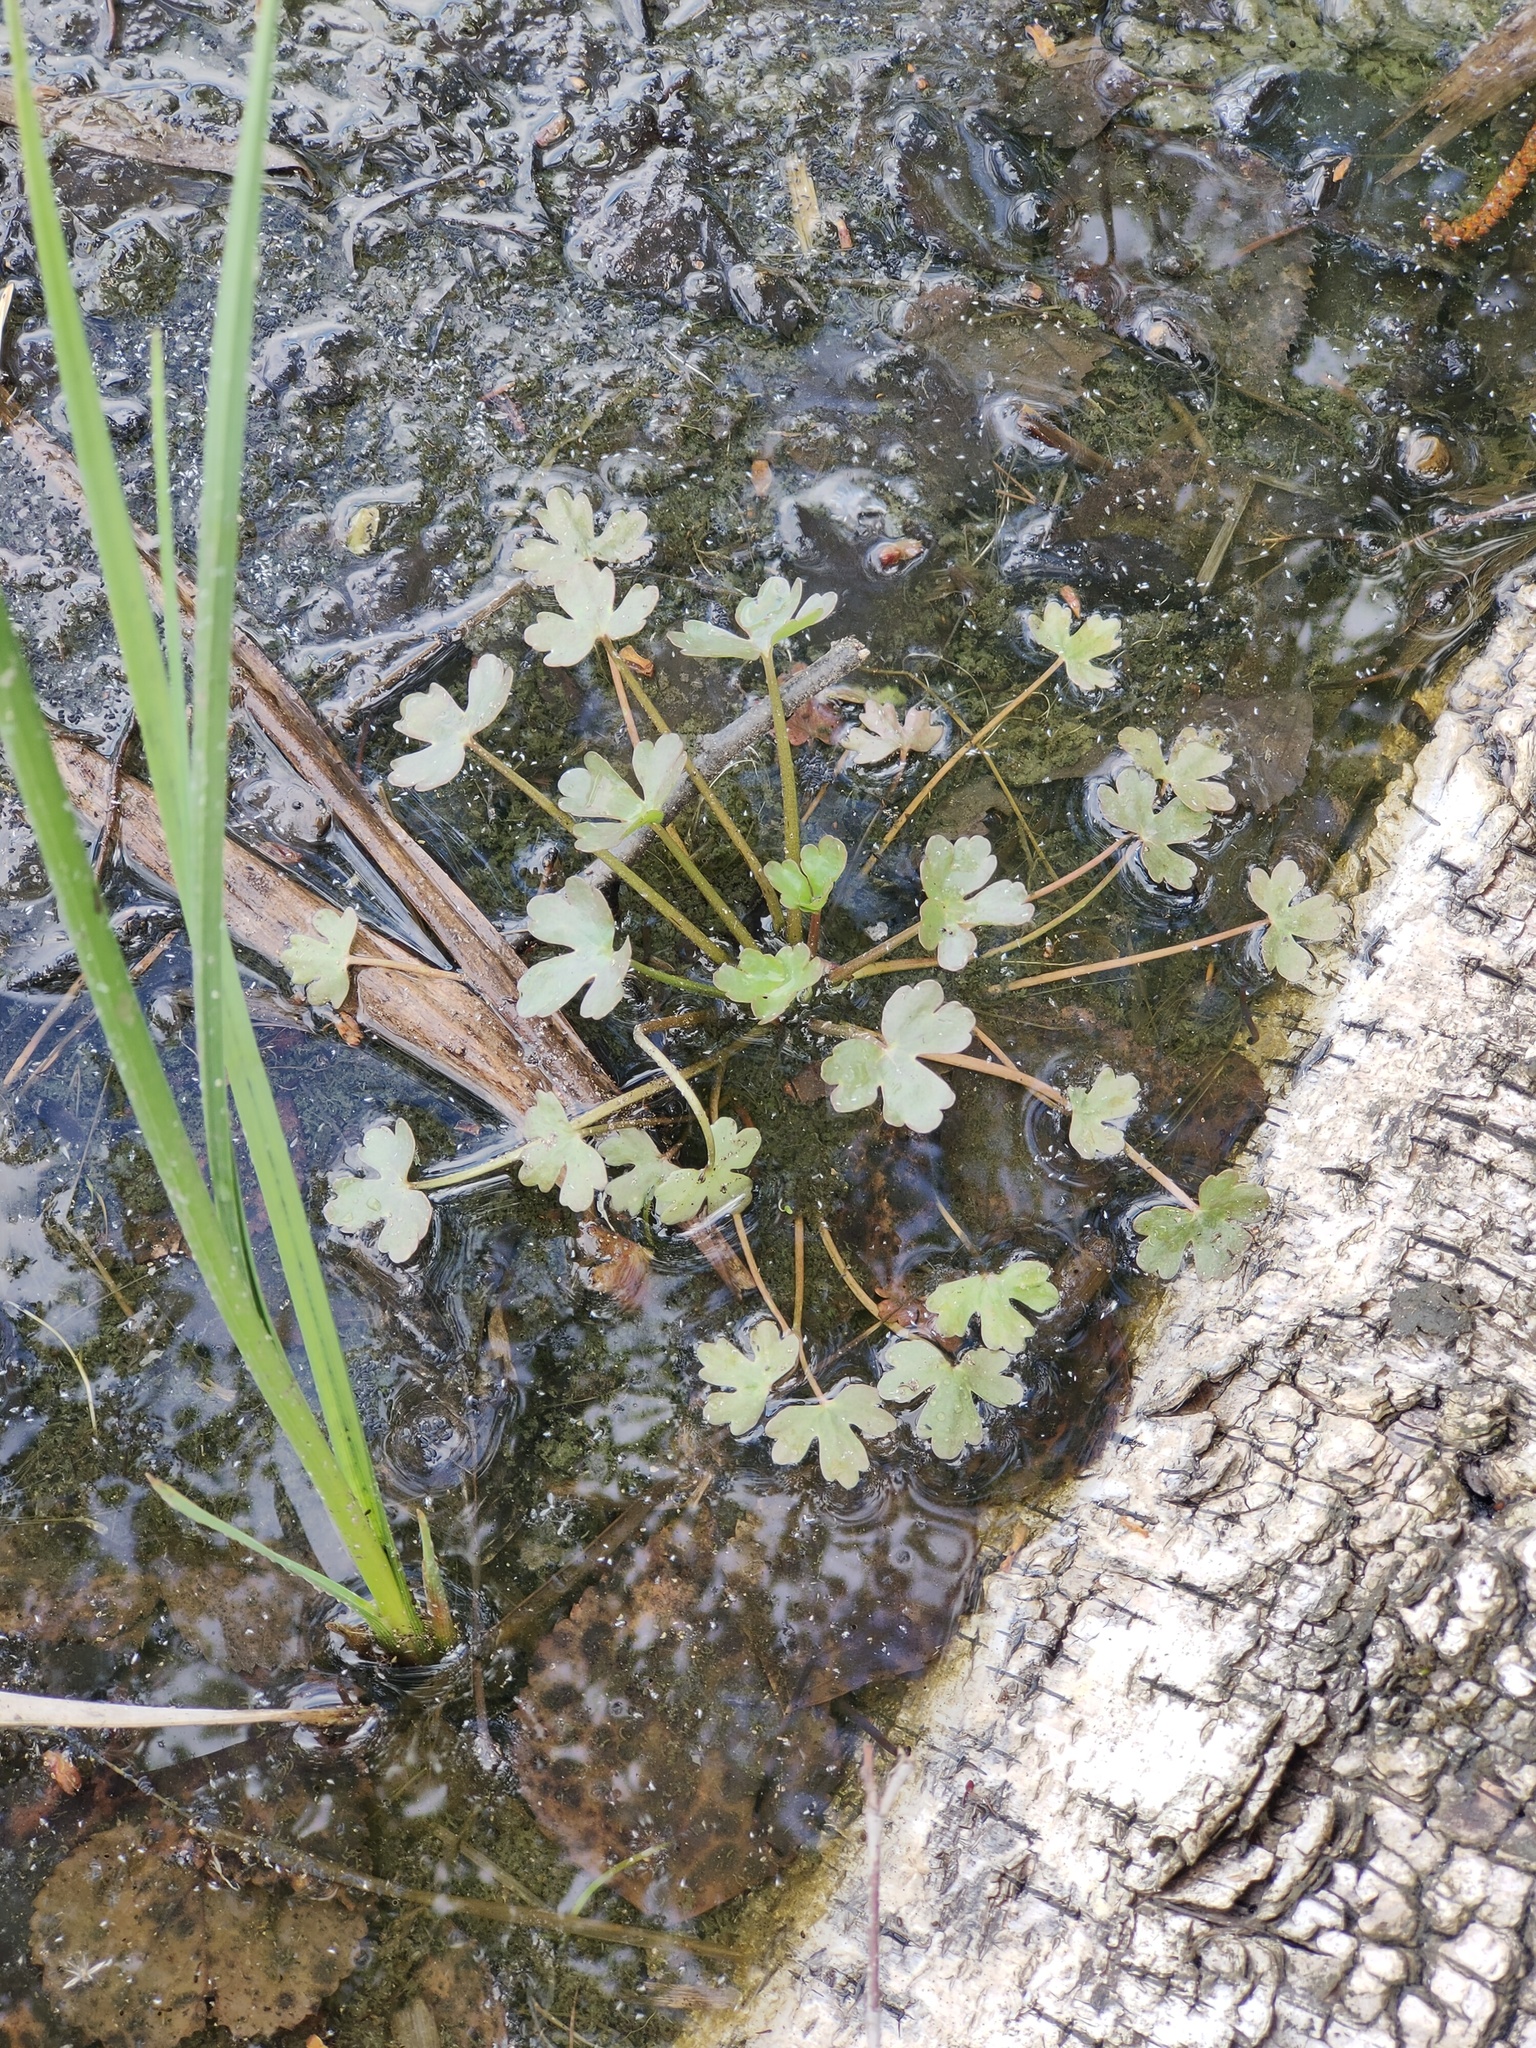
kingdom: Plantae
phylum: Tracheophyta
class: Magnoliopsida
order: Ranunculales
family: Ranunculaceae
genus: Ranunculus
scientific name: Ranunculus sceleratus
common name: Celery-leaved buttercup
